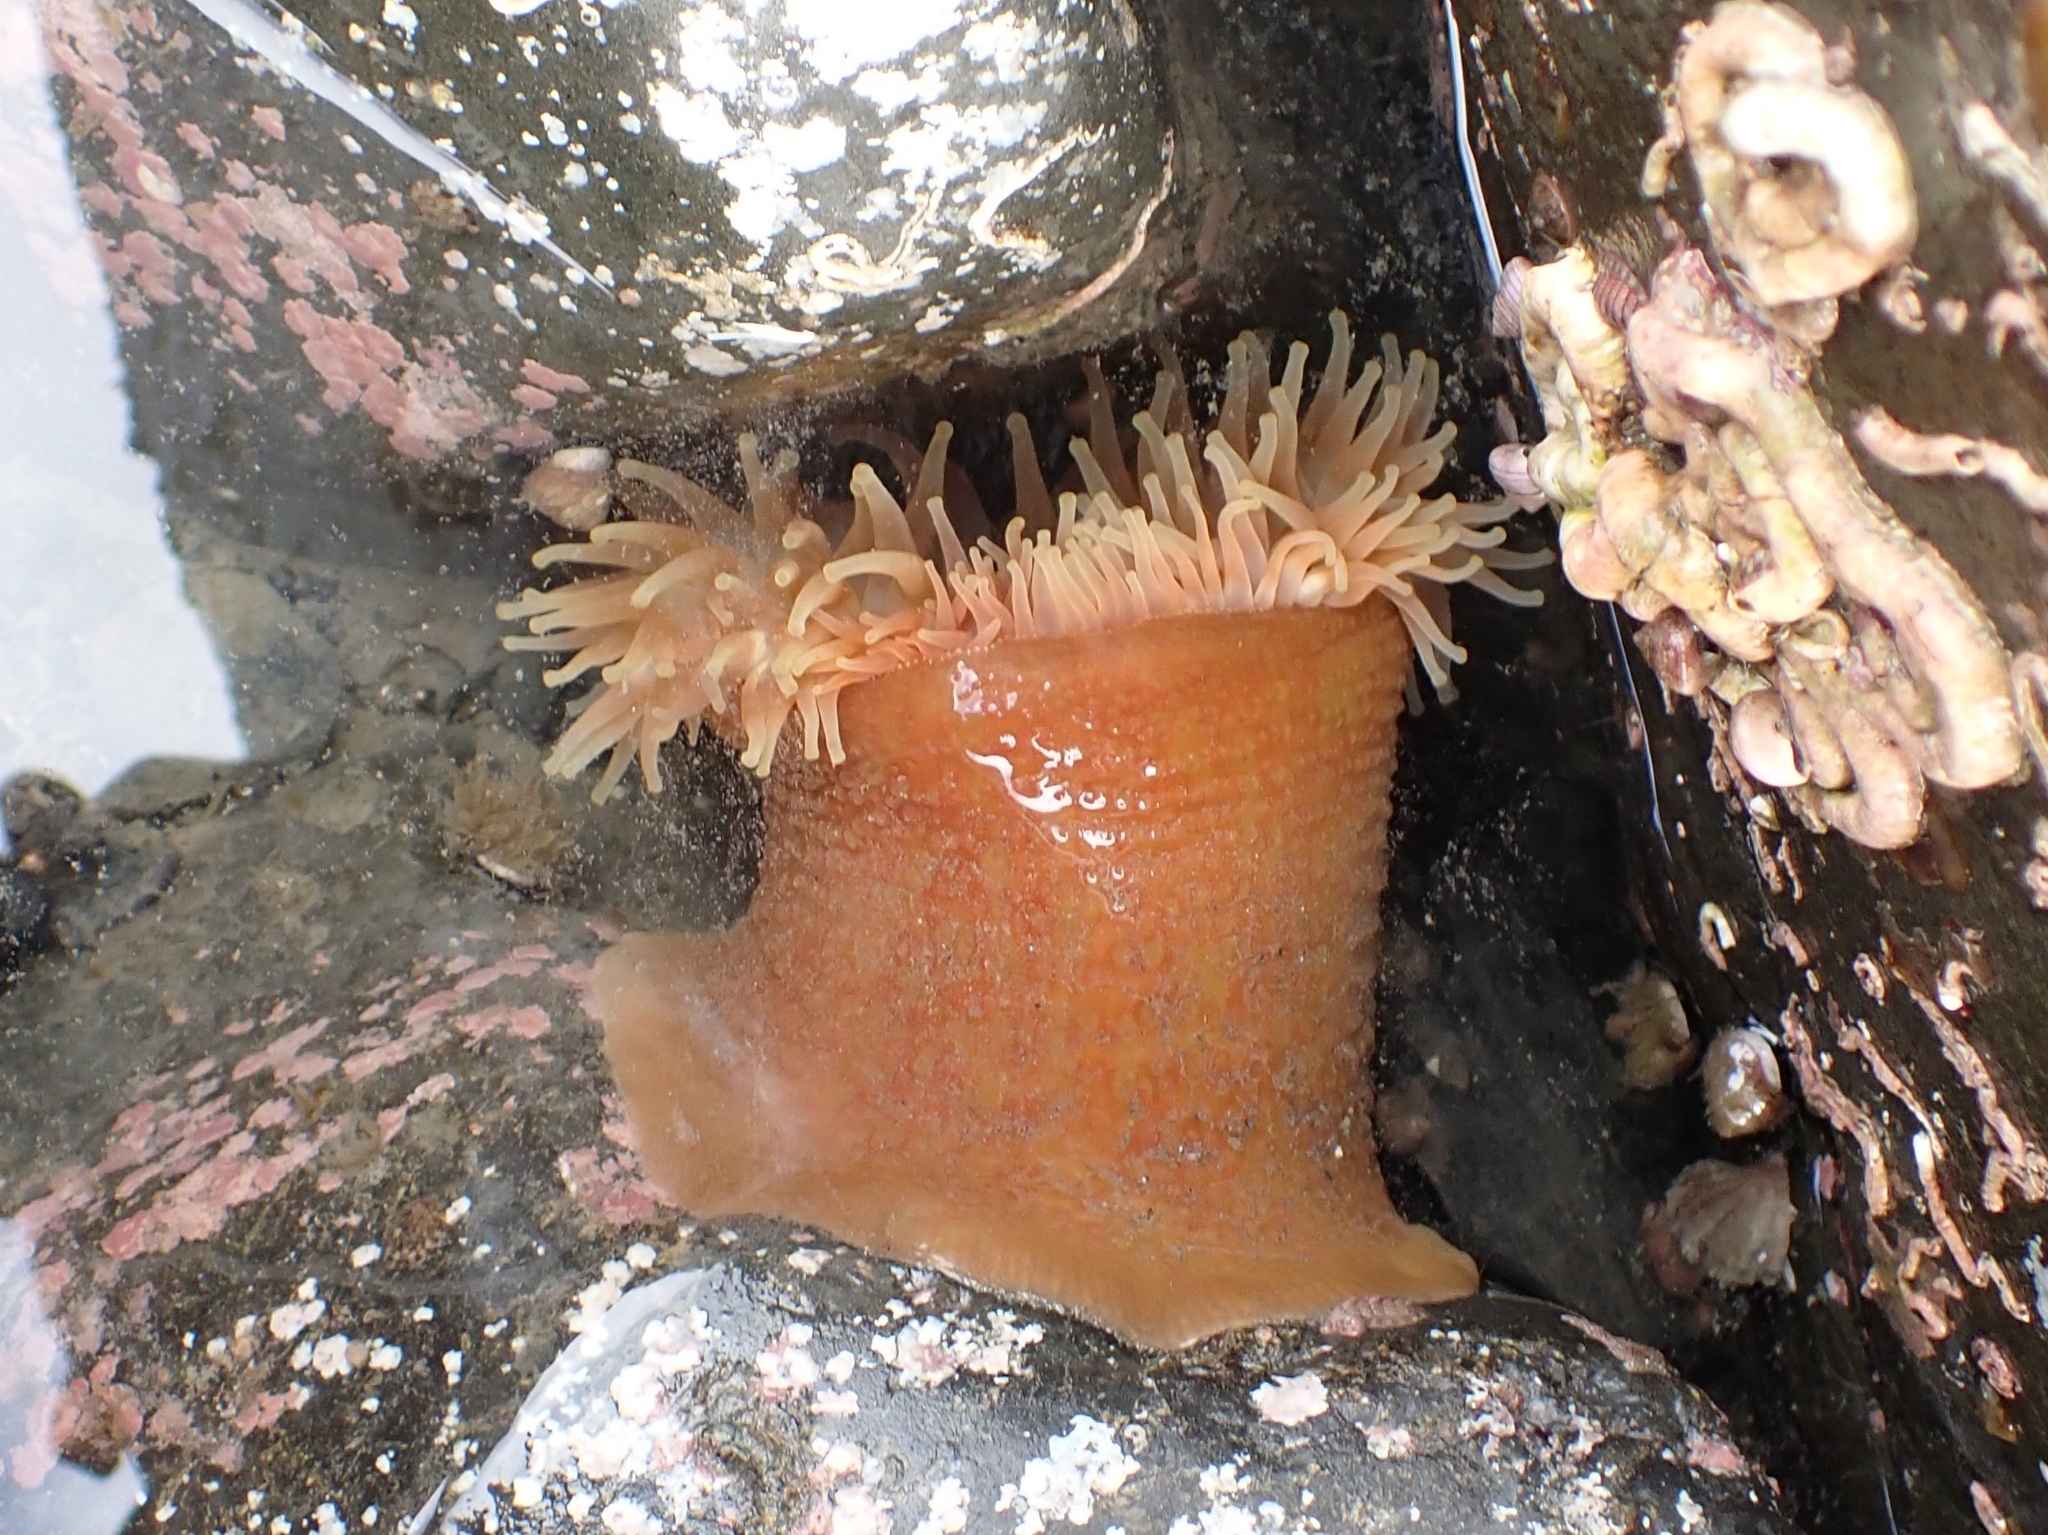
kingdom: Animalia
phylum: Cnidaria
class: Anthozoa
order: Actiniaria
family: Actiniidae
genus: Urticina
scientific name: Urticina grebelnyi
